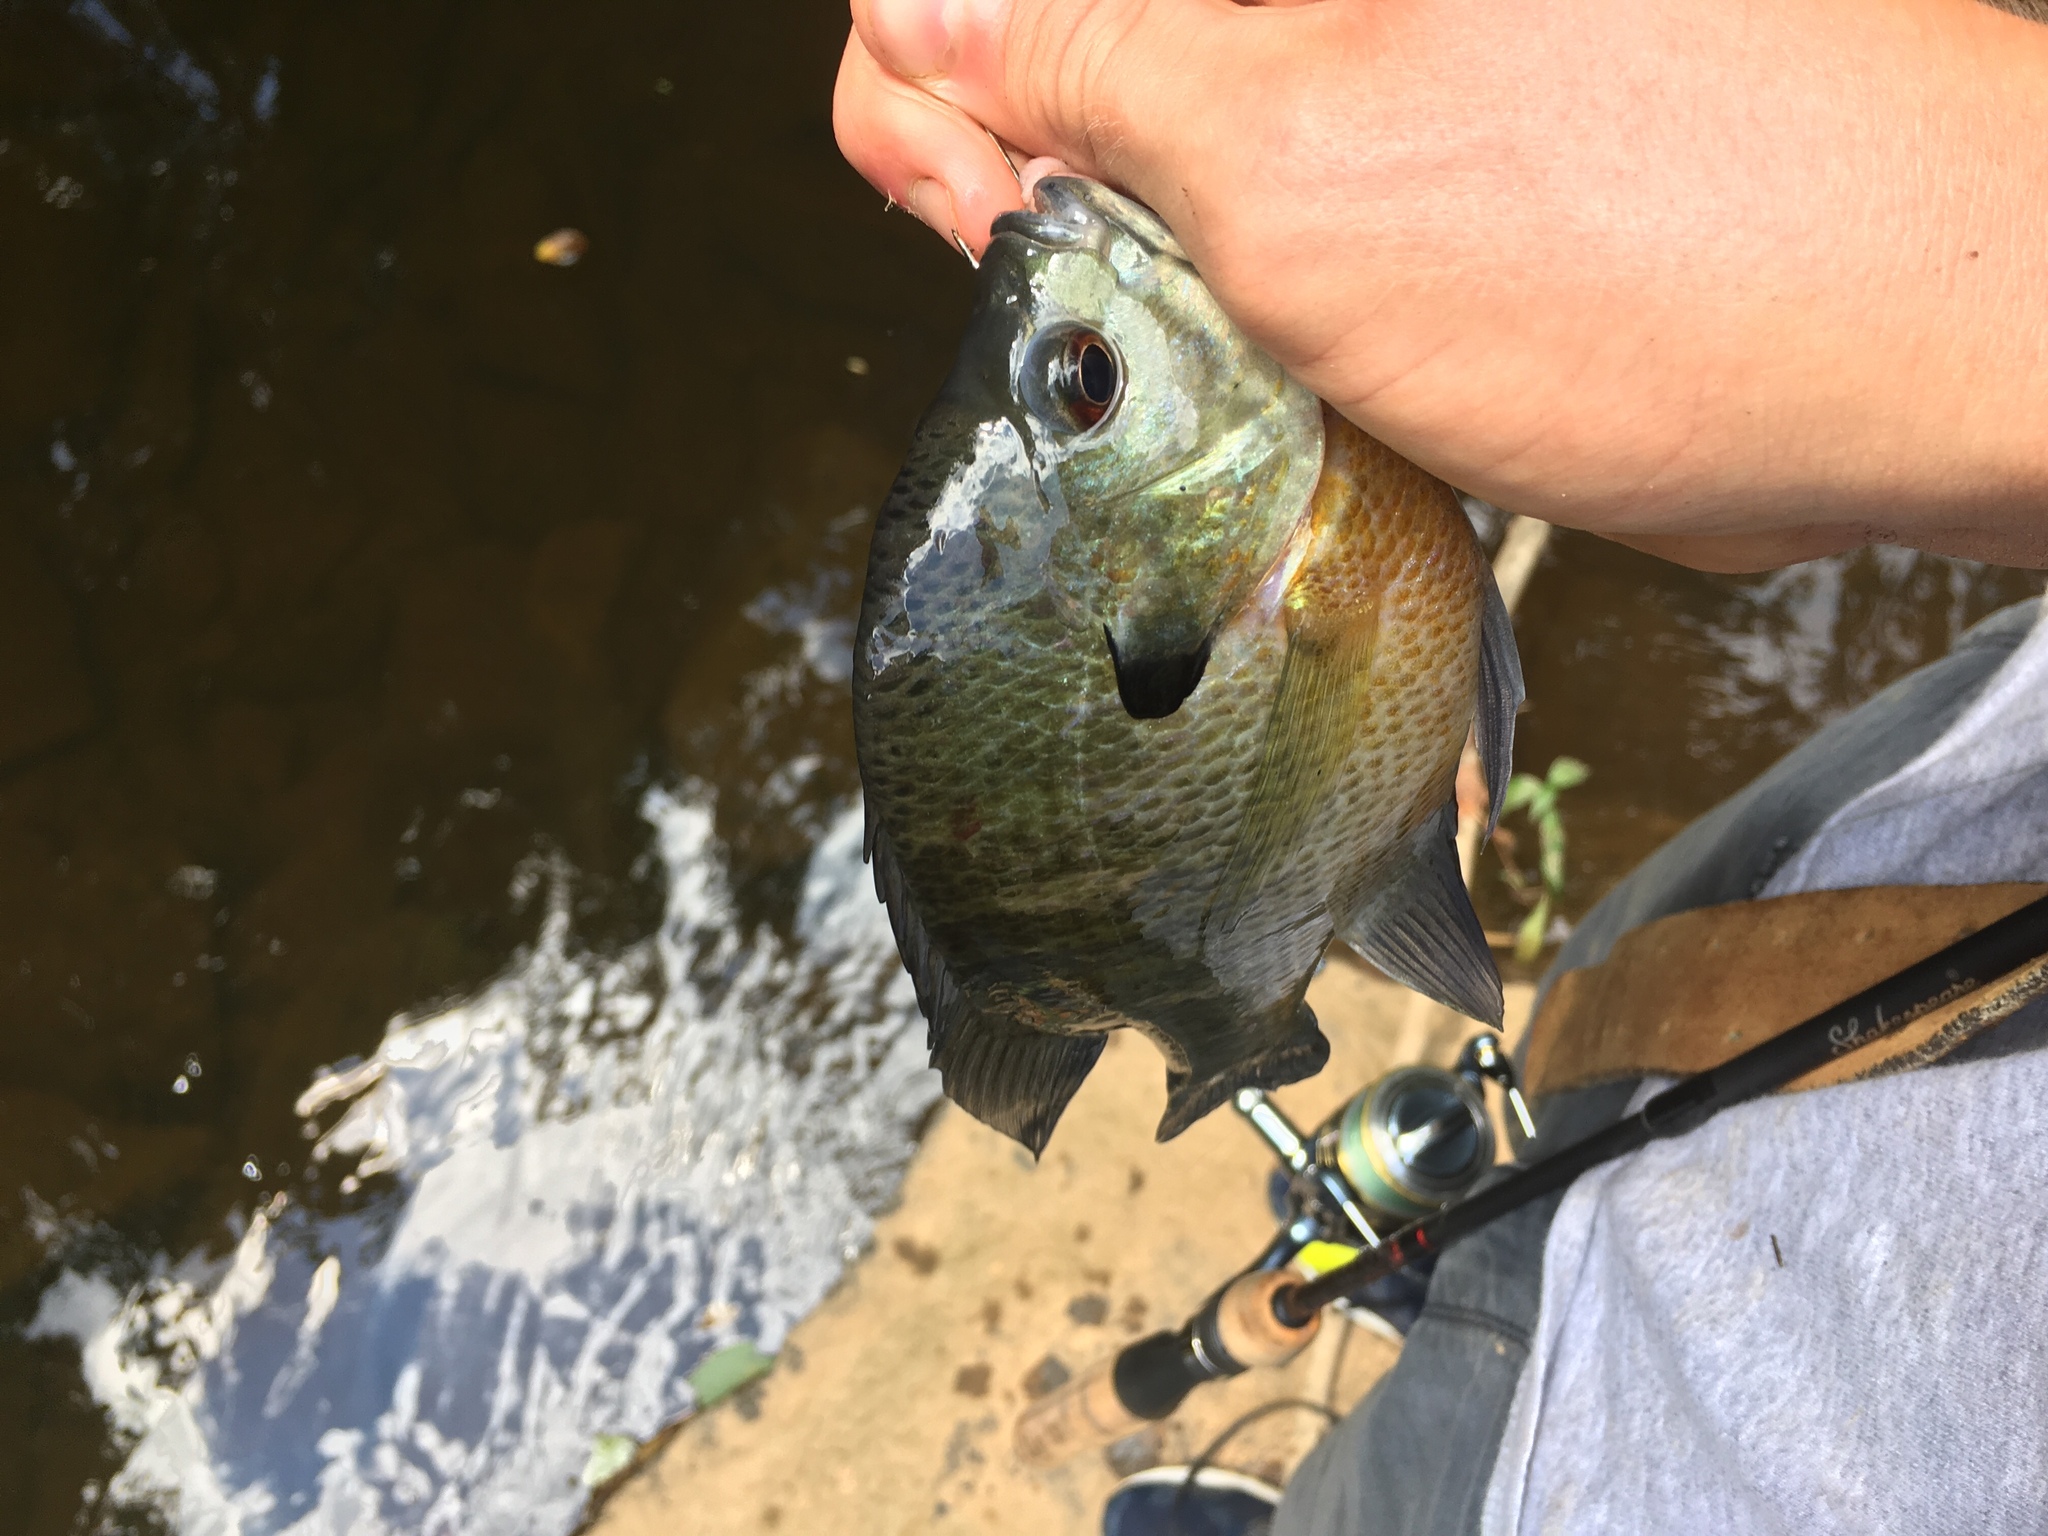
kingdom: Animalia
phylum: Chordata
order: Perciformes
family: Centrarchidae
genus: Lepomis
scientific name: Lepomis macrochirus
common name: Bluegill
